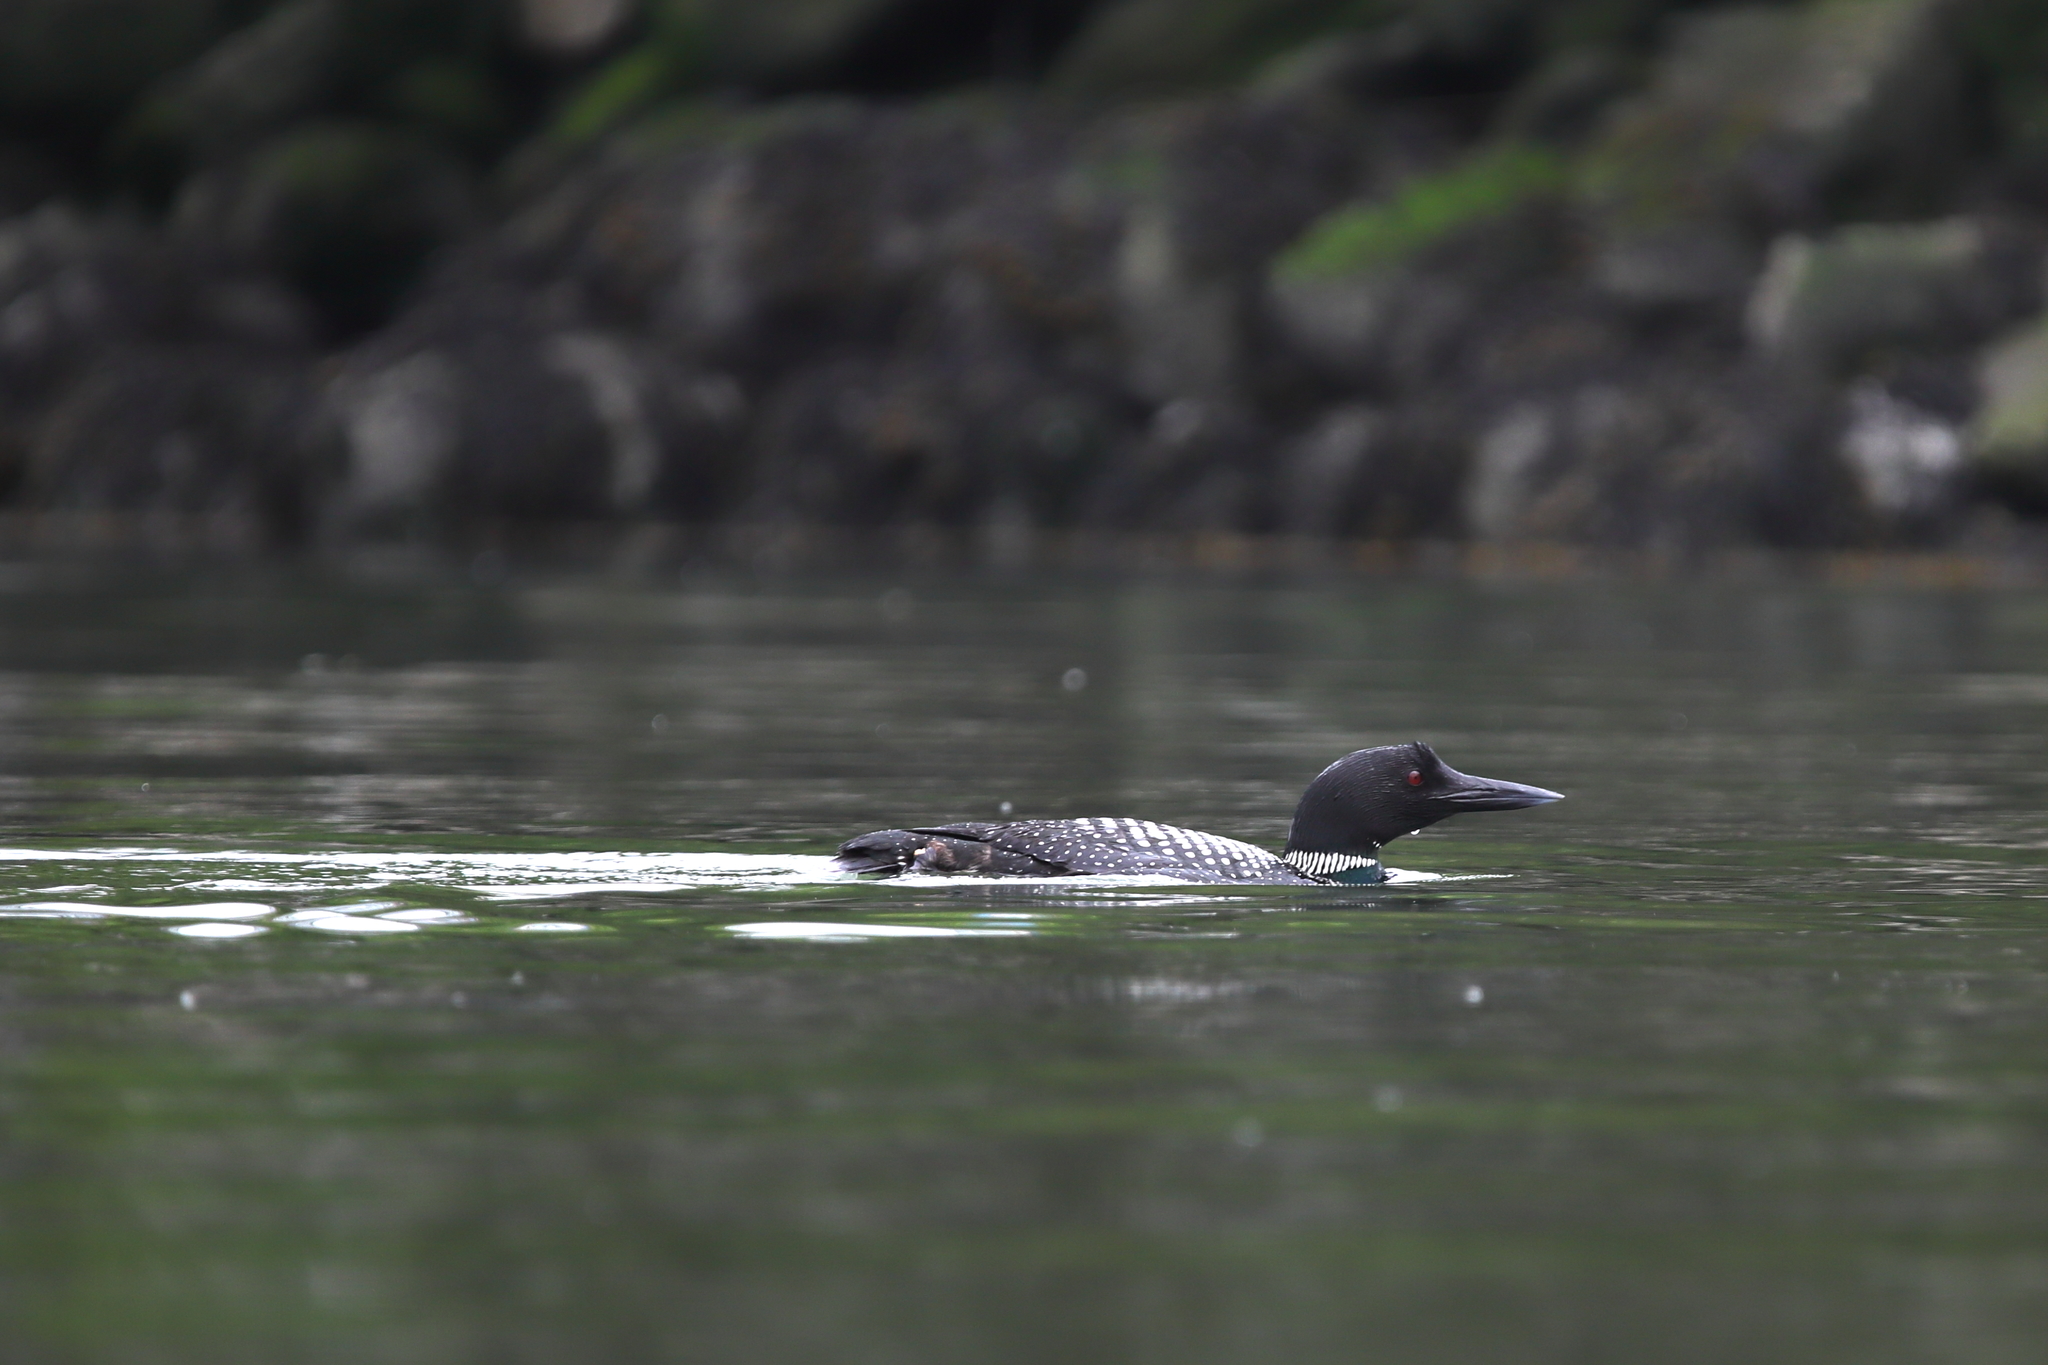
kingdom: Animalia
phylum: Chordata
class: Aves
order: Gaviiformes
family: Gaviidae
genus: Gavia
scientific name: Gavia immer
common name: Common loon
